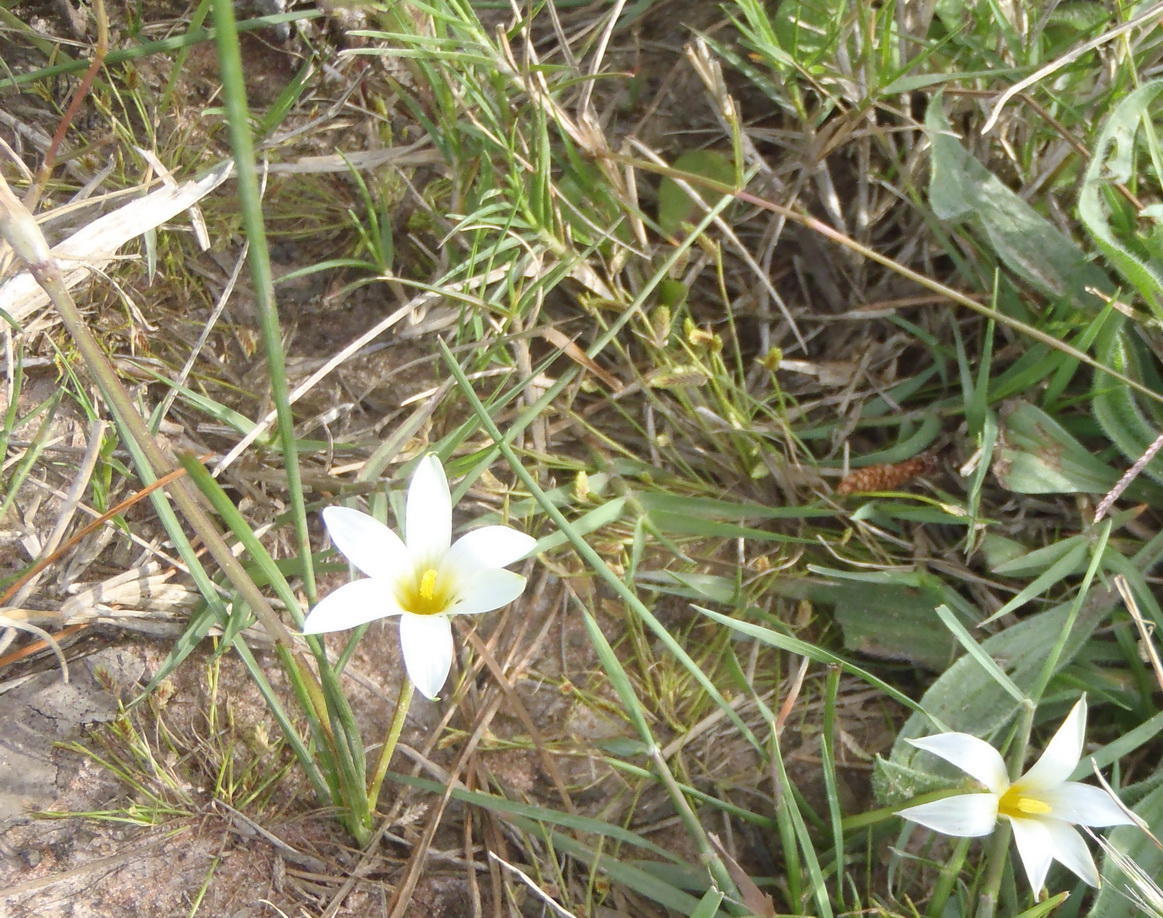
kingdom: Plantae
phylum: Tracheophyta
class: Liliopsida
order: Asparagales
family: Iridaceae
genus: Romulea
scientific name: Romulea flava
